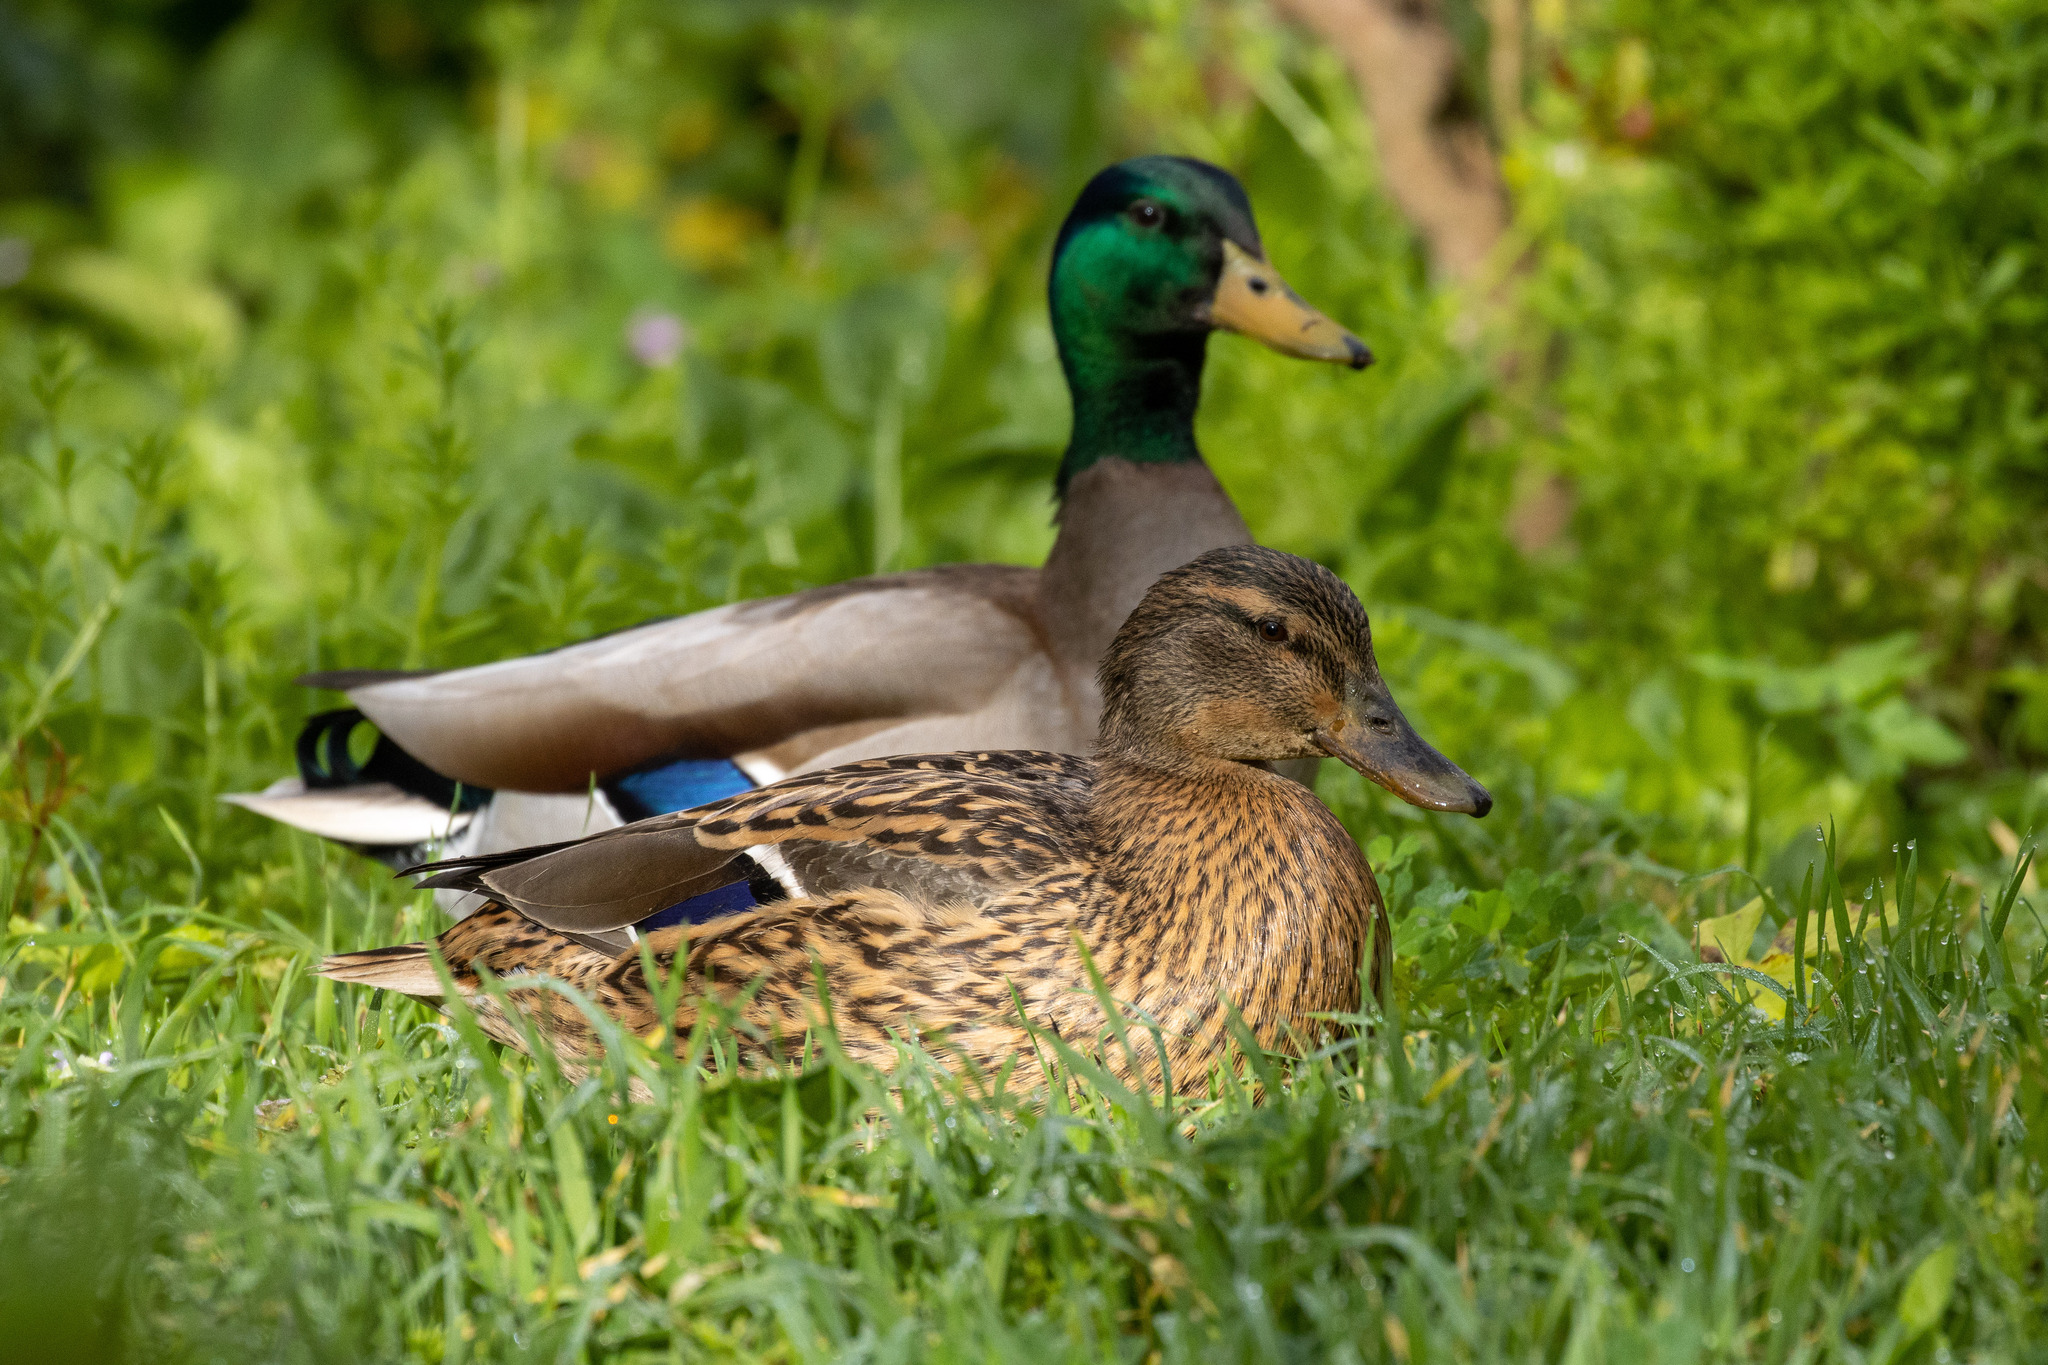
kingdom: Animalia
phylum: Chordata
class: Aves
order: Anseriformes
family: Anatidae
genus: Anas
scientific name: Anas platyrhynchos
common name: Mallard
